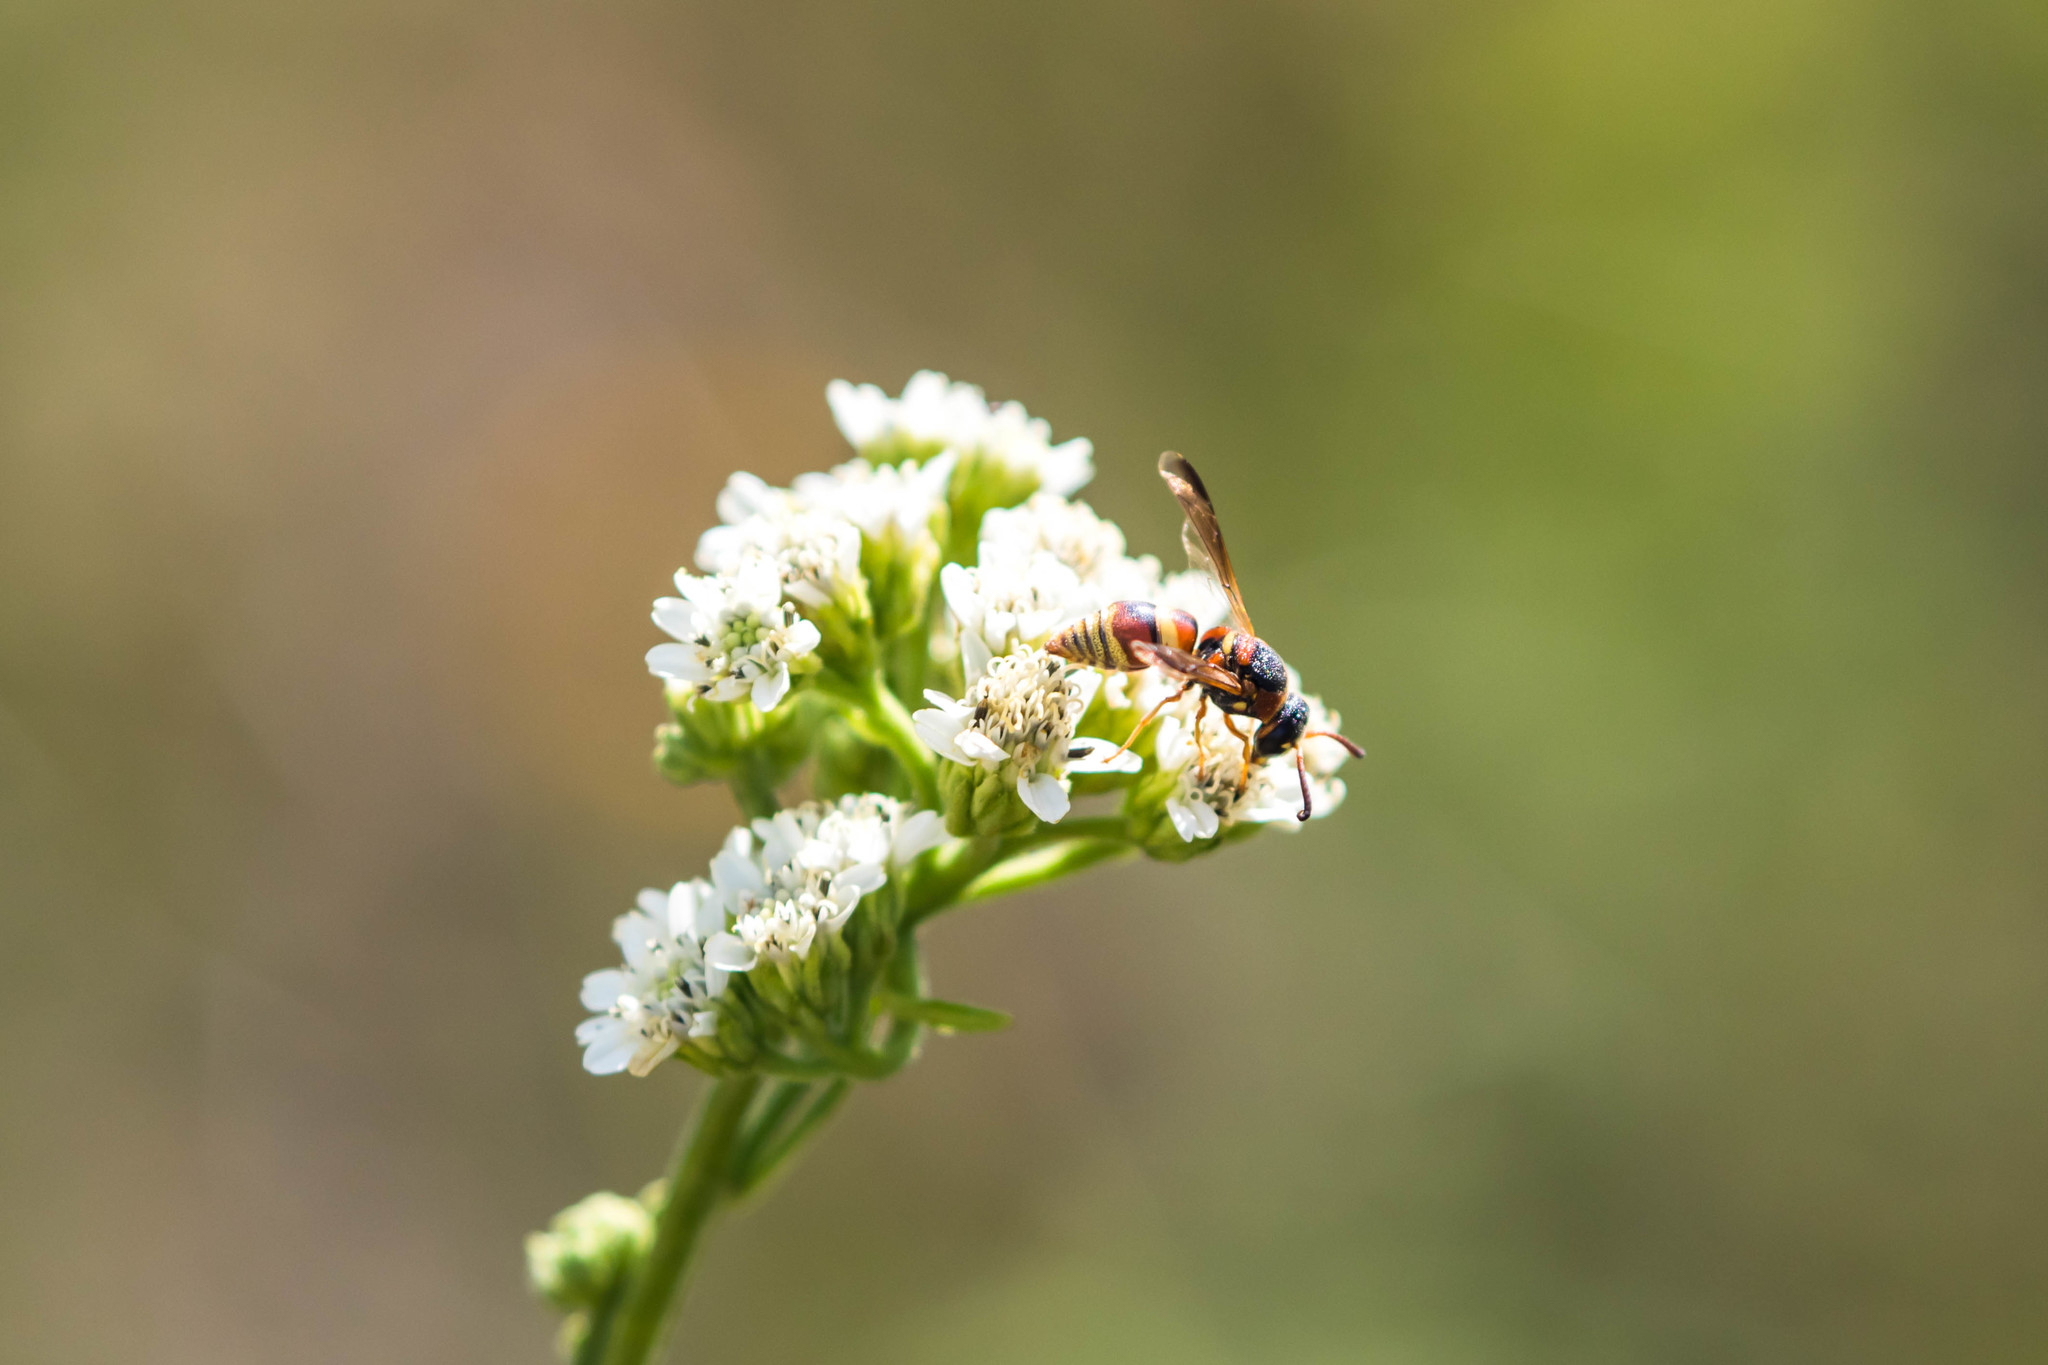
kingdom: Animalia
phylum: Arthropoda
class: Insecta
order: Hymenoptera
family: Eumenidae
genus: Euodynerus
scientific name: Euodynerus hidalgo
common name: Wasp
